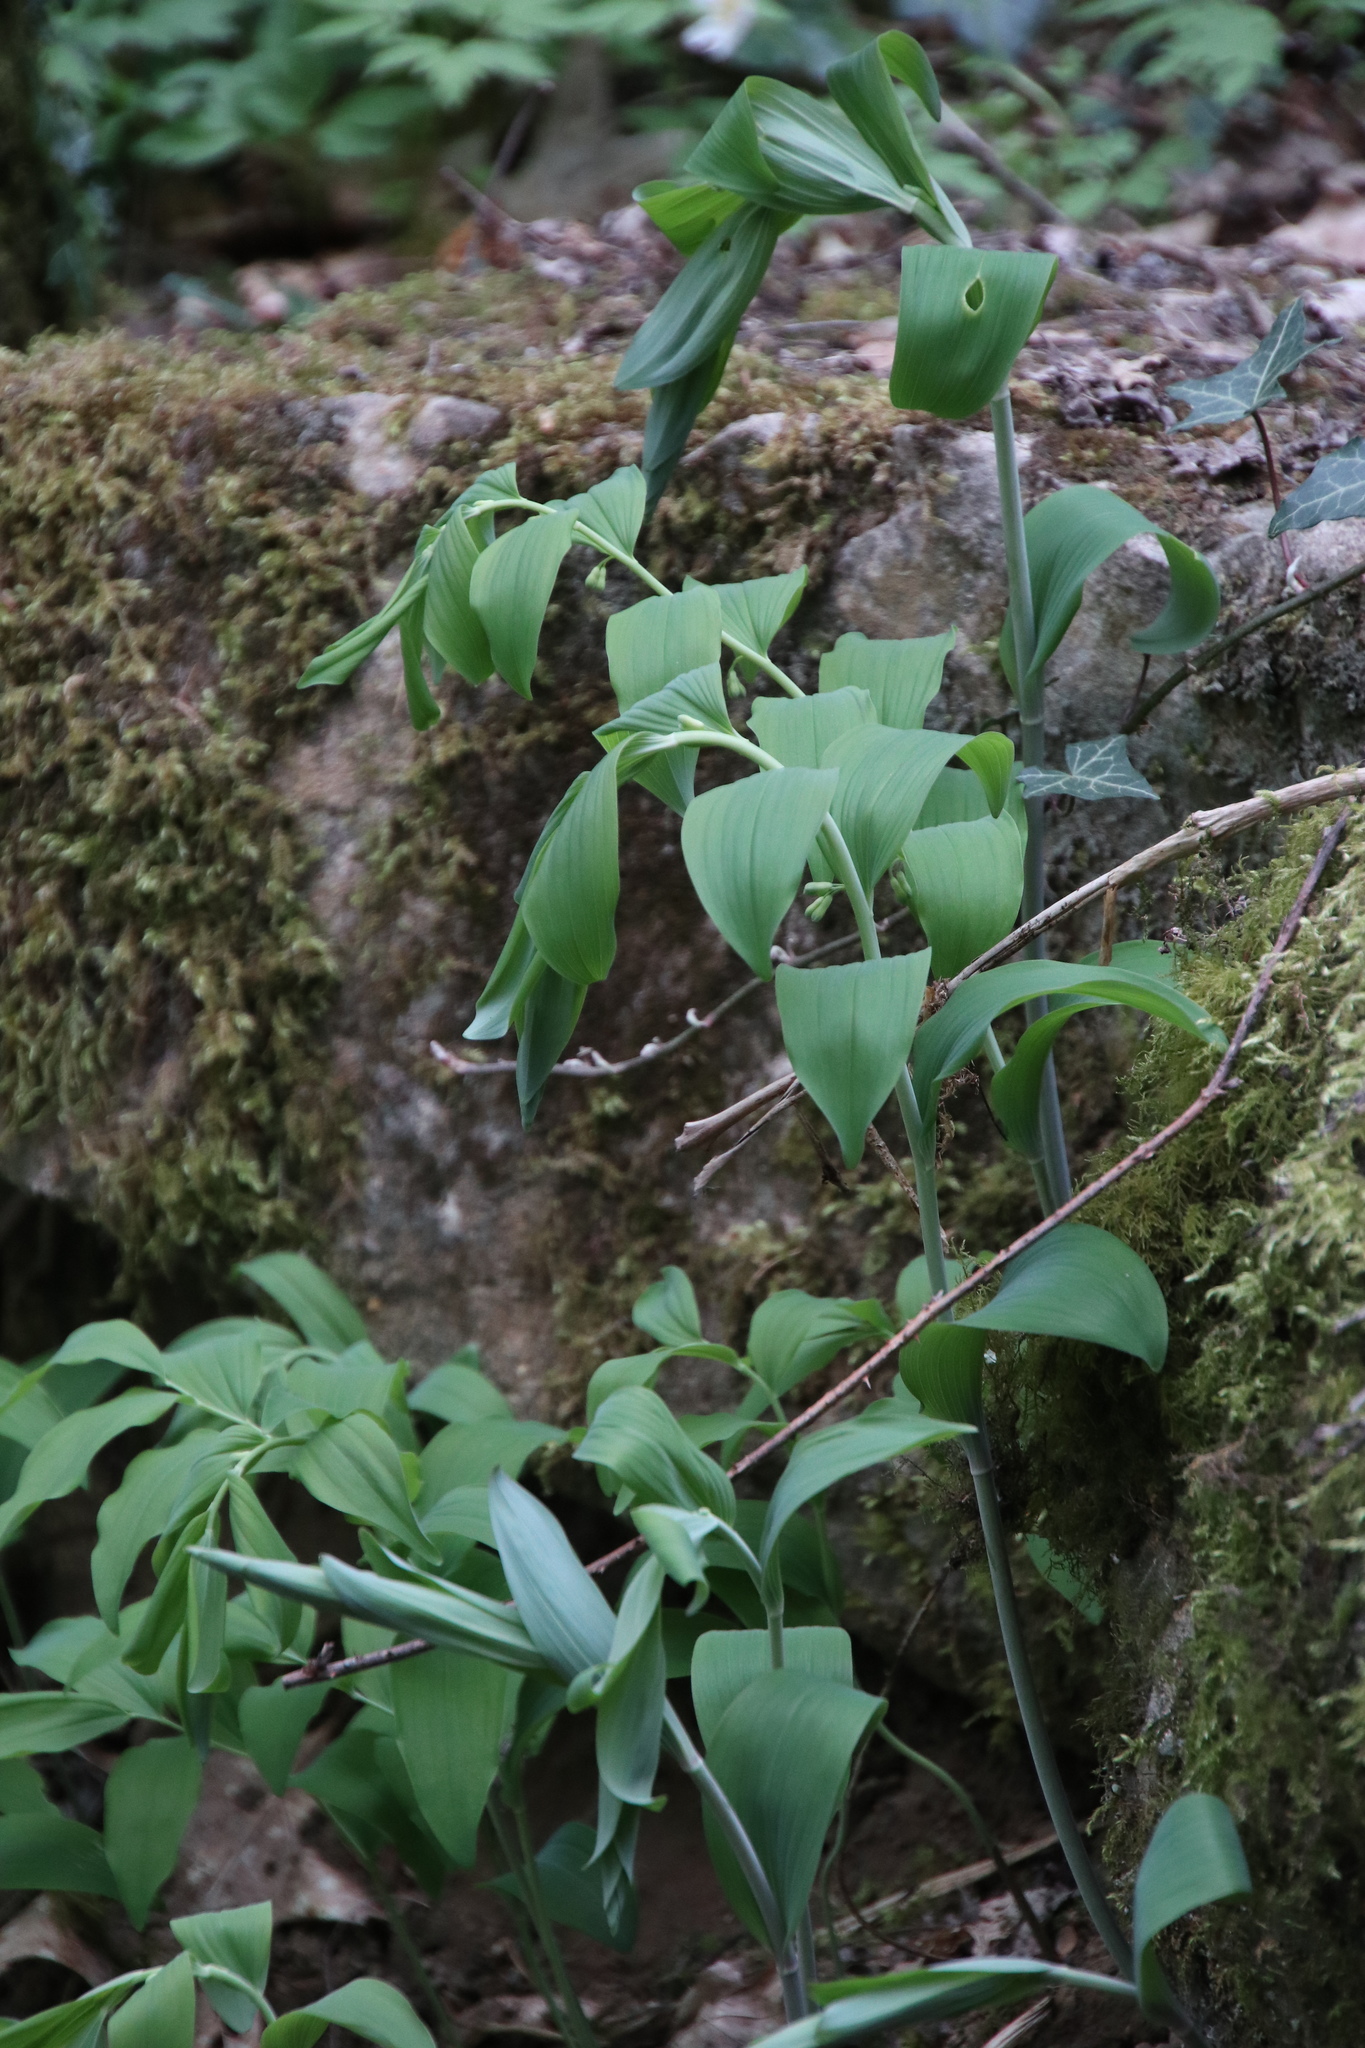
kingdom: Plantae
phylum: Tracheophyta
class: Liliopsida
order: Asparagales
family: Asparagaceae
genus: Polygonatum
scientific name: Polygonatum multiflorum
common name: Solomon's-seal
